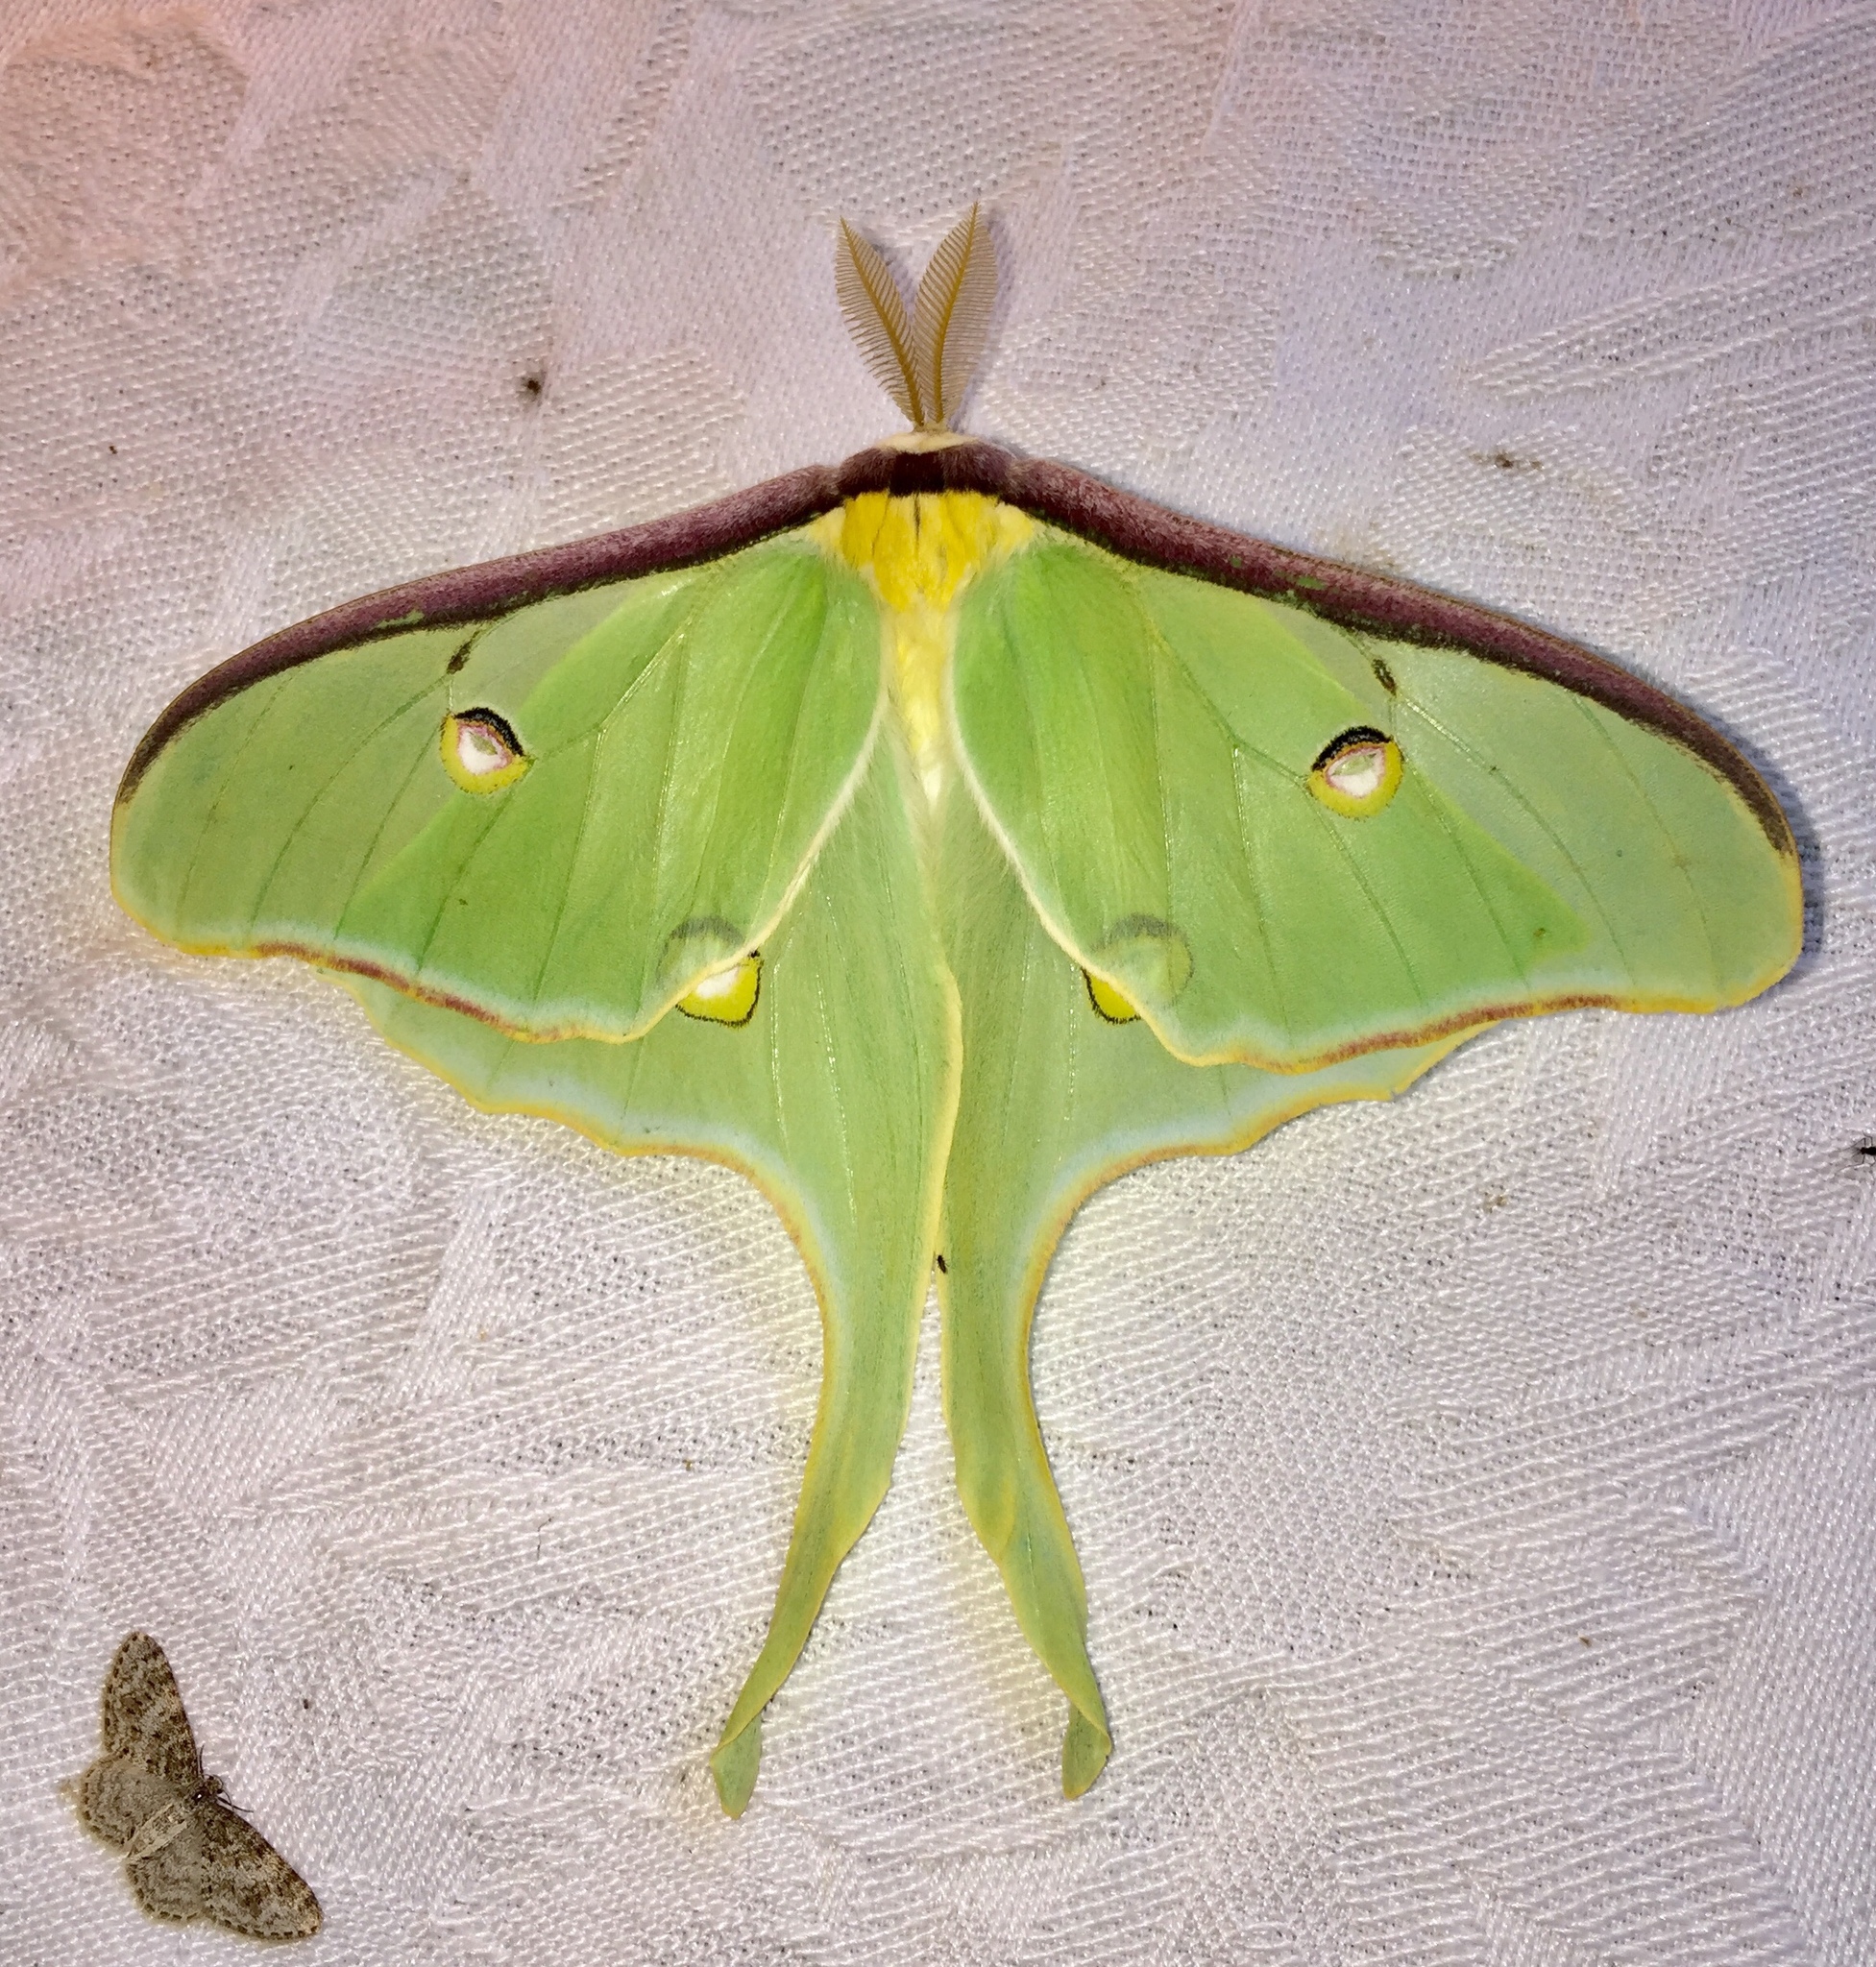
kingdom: Animalia
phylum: Arthropoda
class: Insecta
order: Lepidoptera
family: Saturniidae
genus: Actias
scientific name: Actias luna
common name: Luna moth
